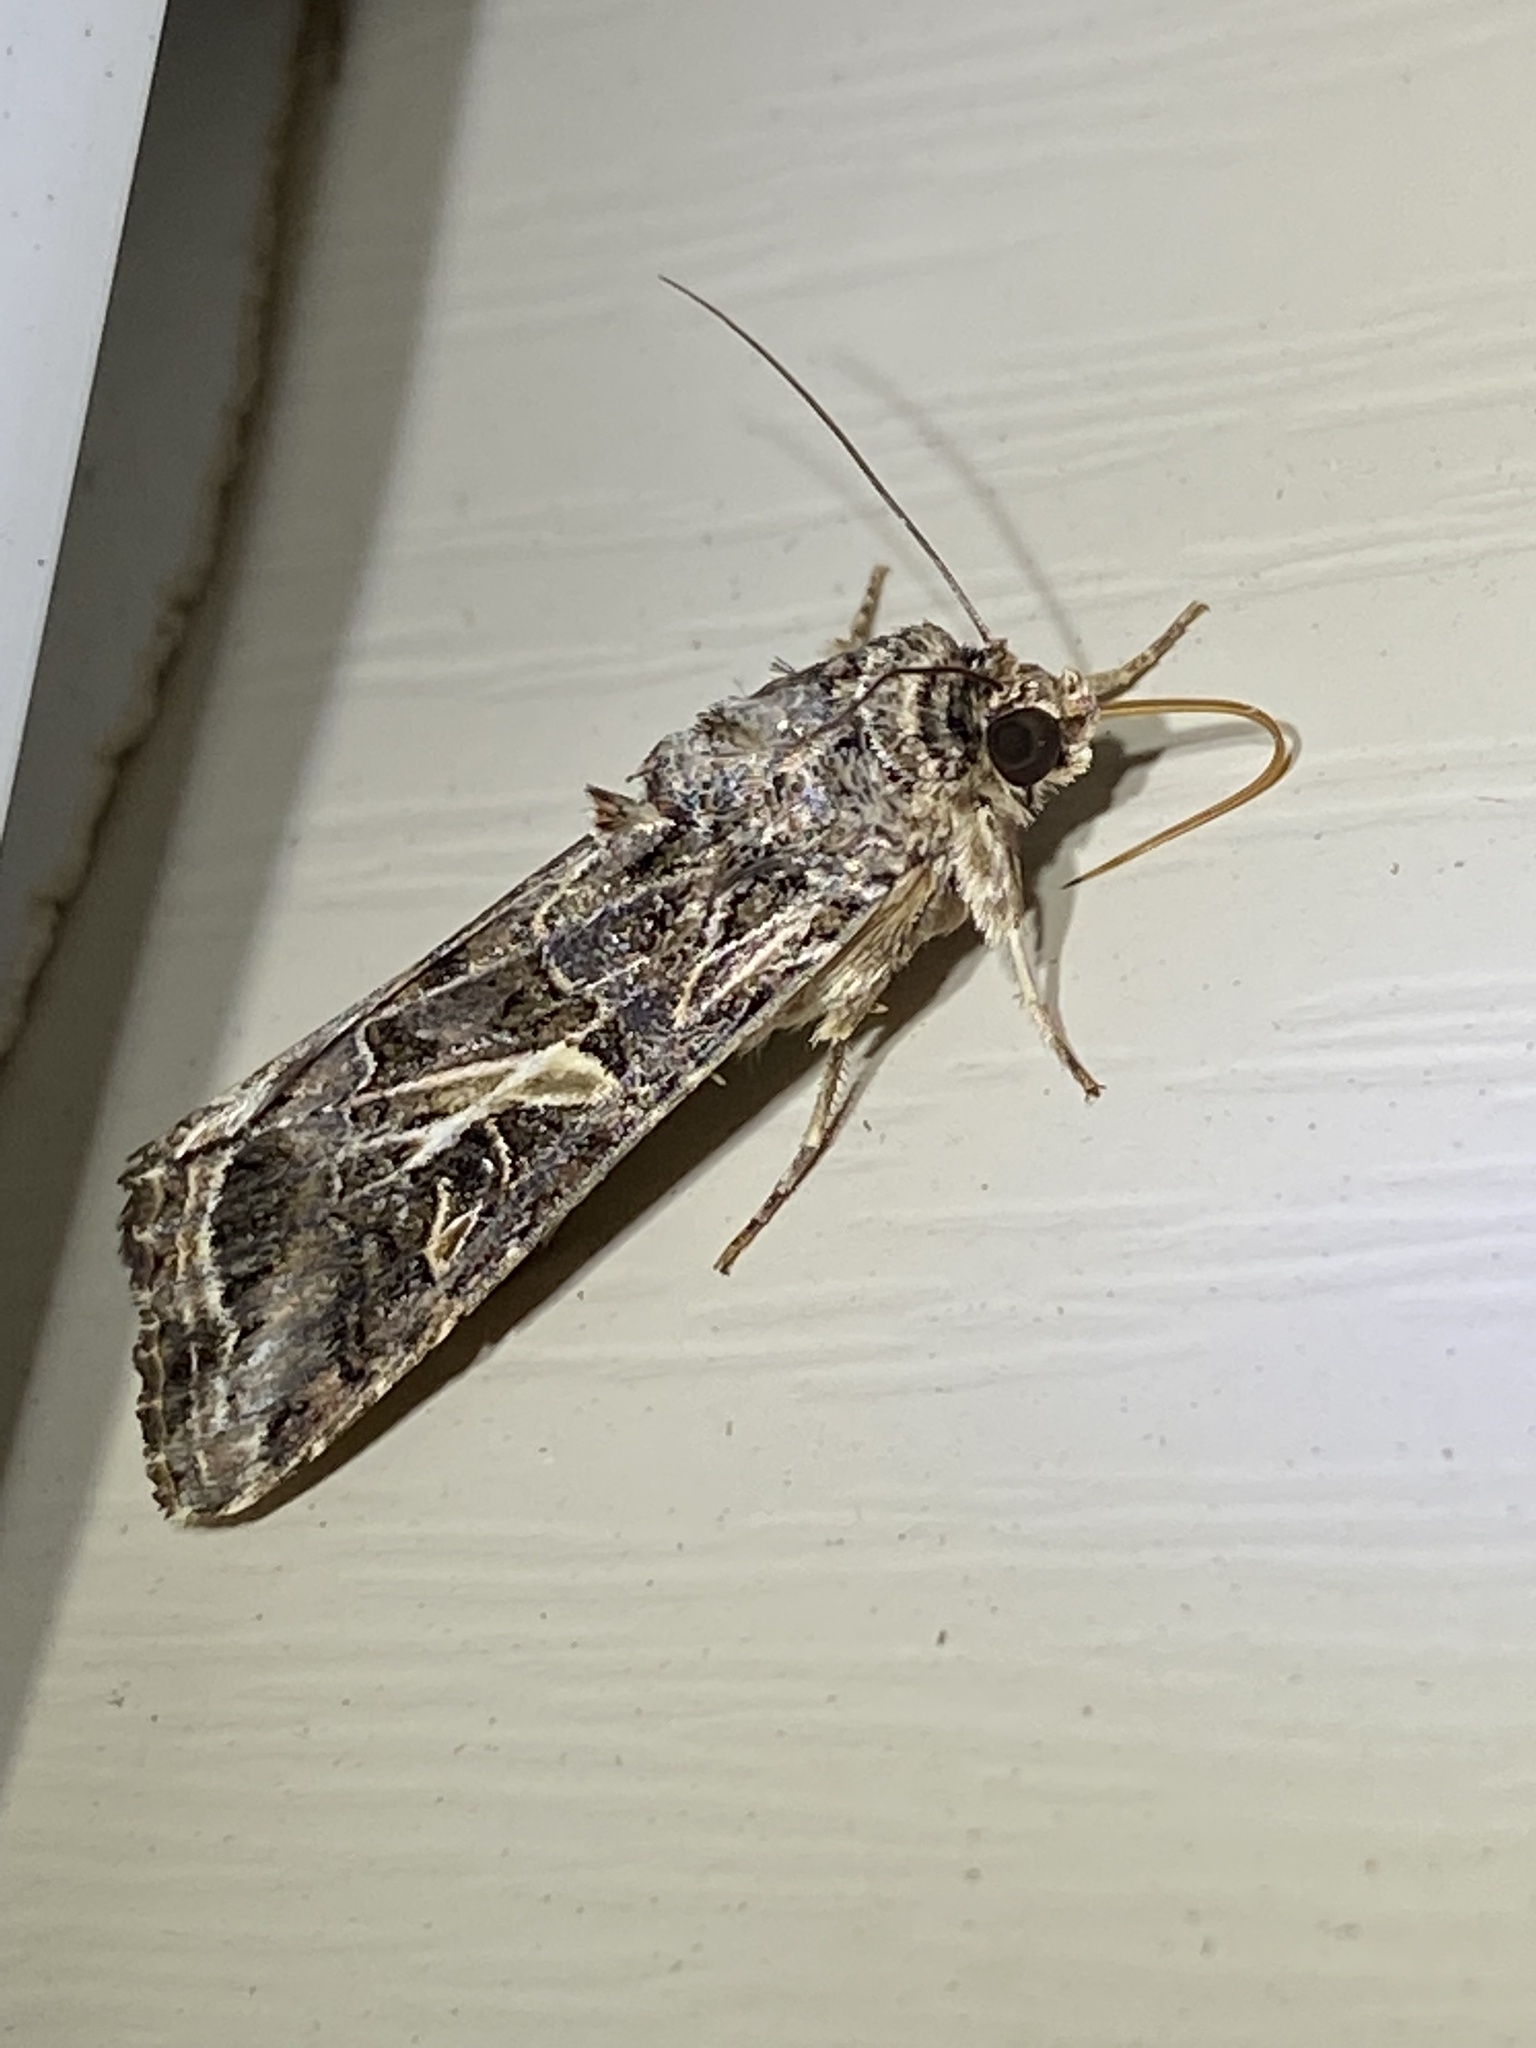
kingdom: Animalia
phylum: Arthropoda
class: Insecta
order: Lepidoptera
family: Noctuidae
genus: Spodoptera
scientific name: Spodoptera ornithogalli
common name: Yellow-striped armyworm
